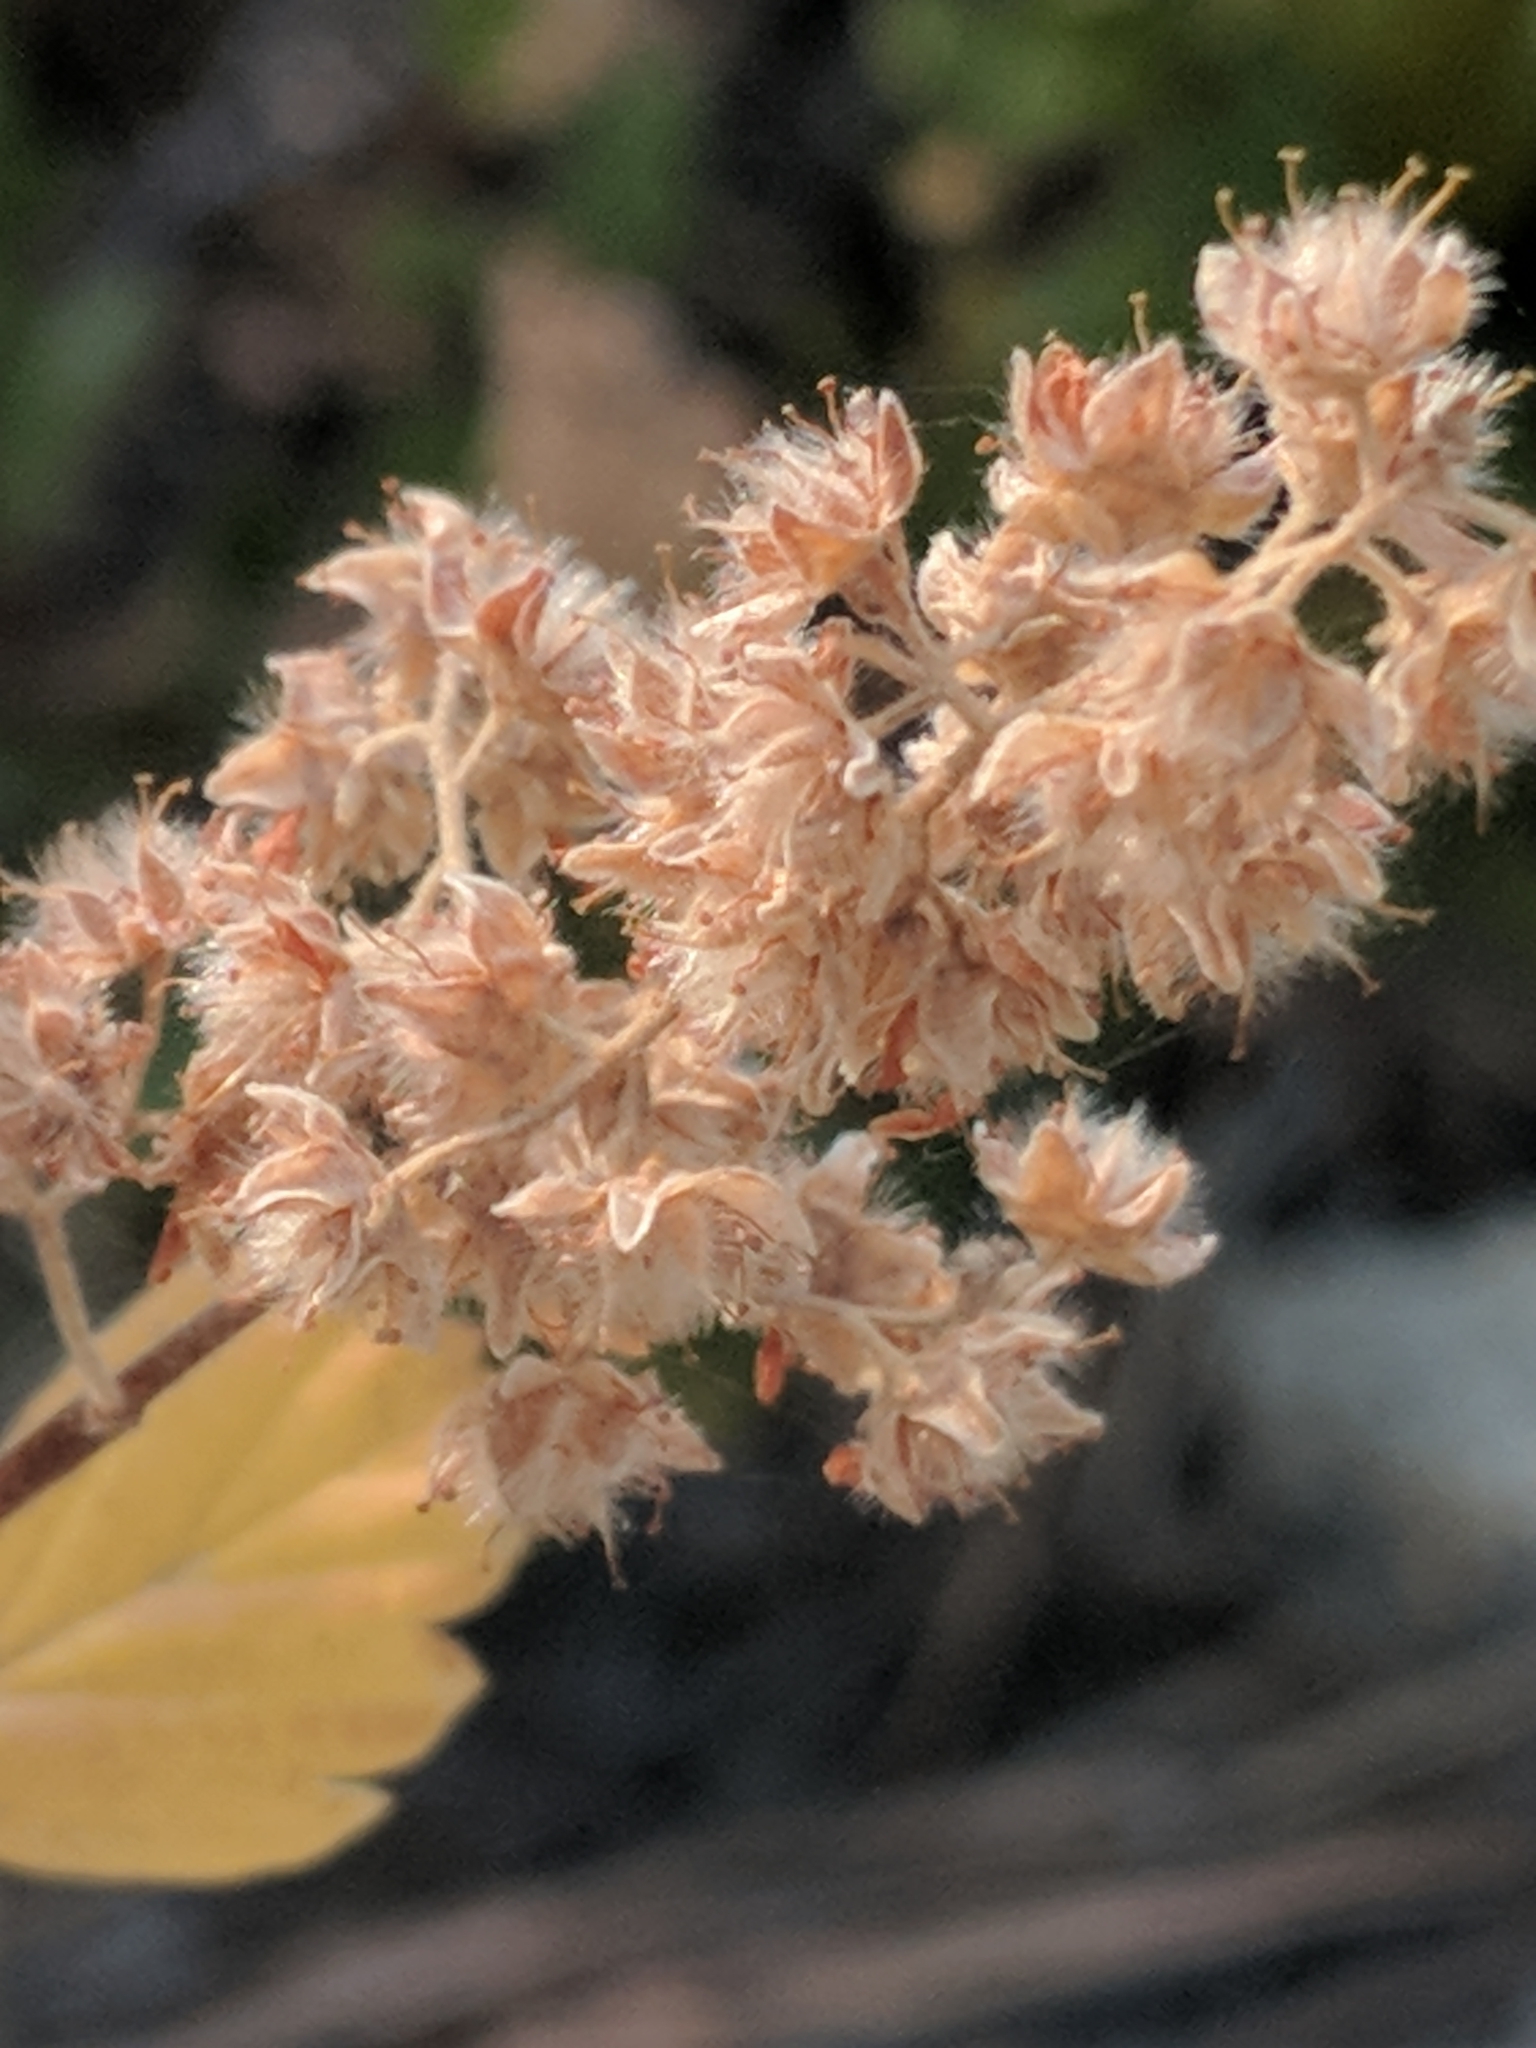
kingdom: Plantae
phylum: Tracheophyta
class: Magnoliopsida
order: Rosales
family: Rosaceae
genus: Holodiscus
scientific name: Holodiscus discolor
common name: Oceanspray
